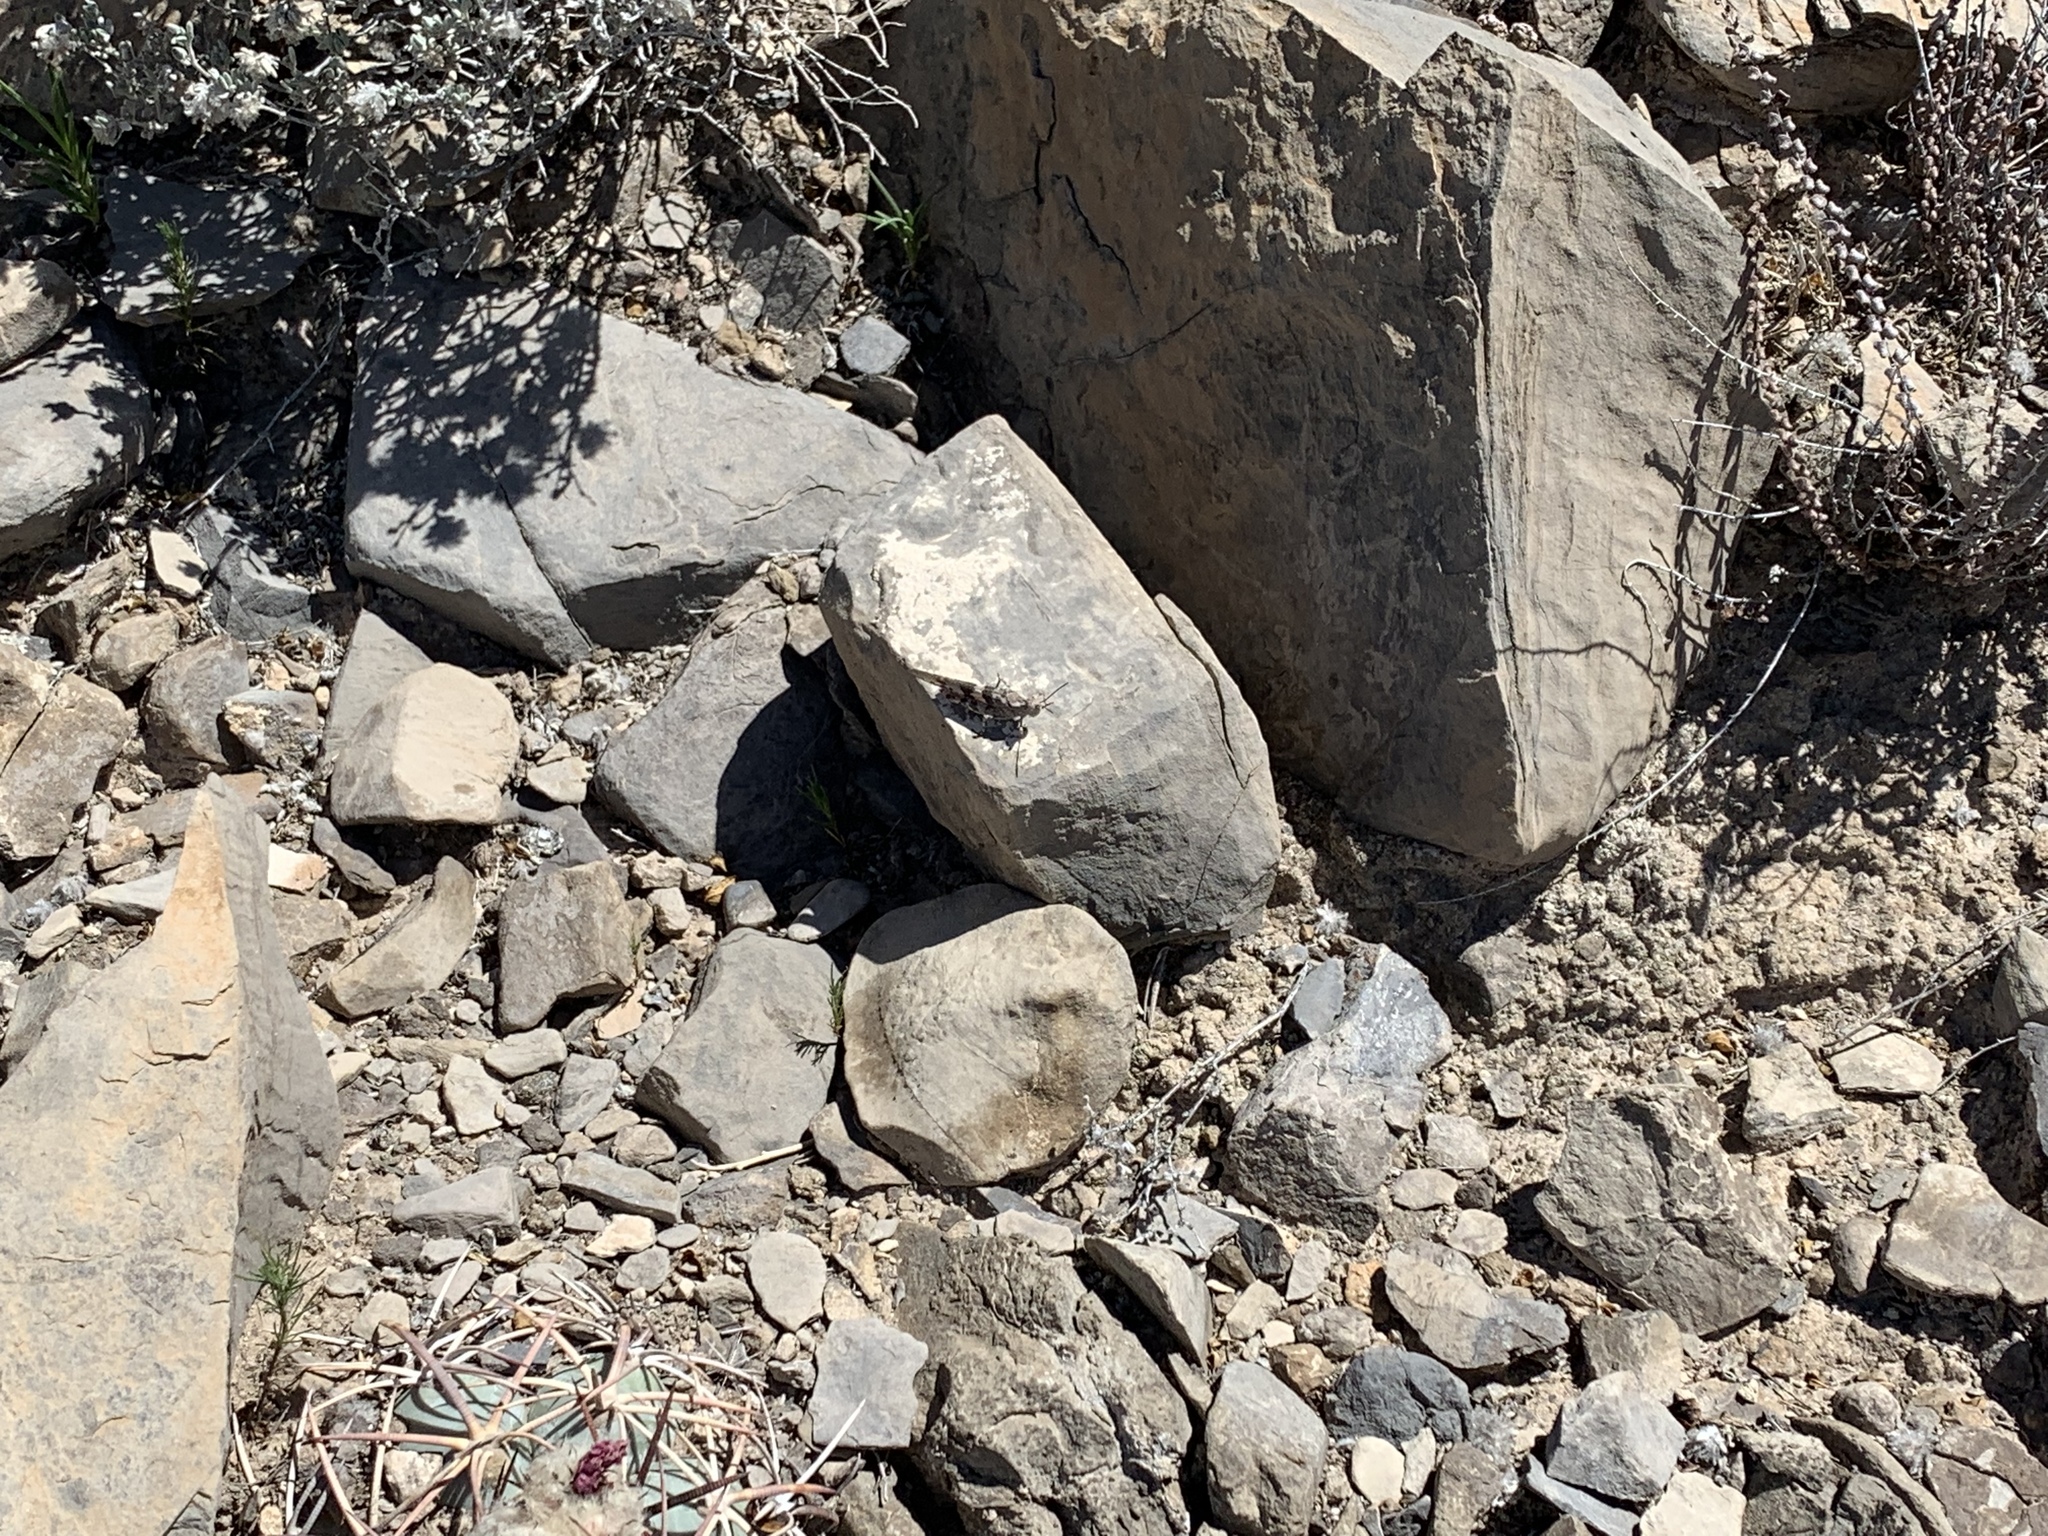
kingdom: Animalia
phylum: Arthropoda
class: Insecta
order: Orthoptera
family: Acrididae
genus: Trimerotropis
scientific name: Trimerotropis pallidipennis
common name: Pallid-winged grasshopper
